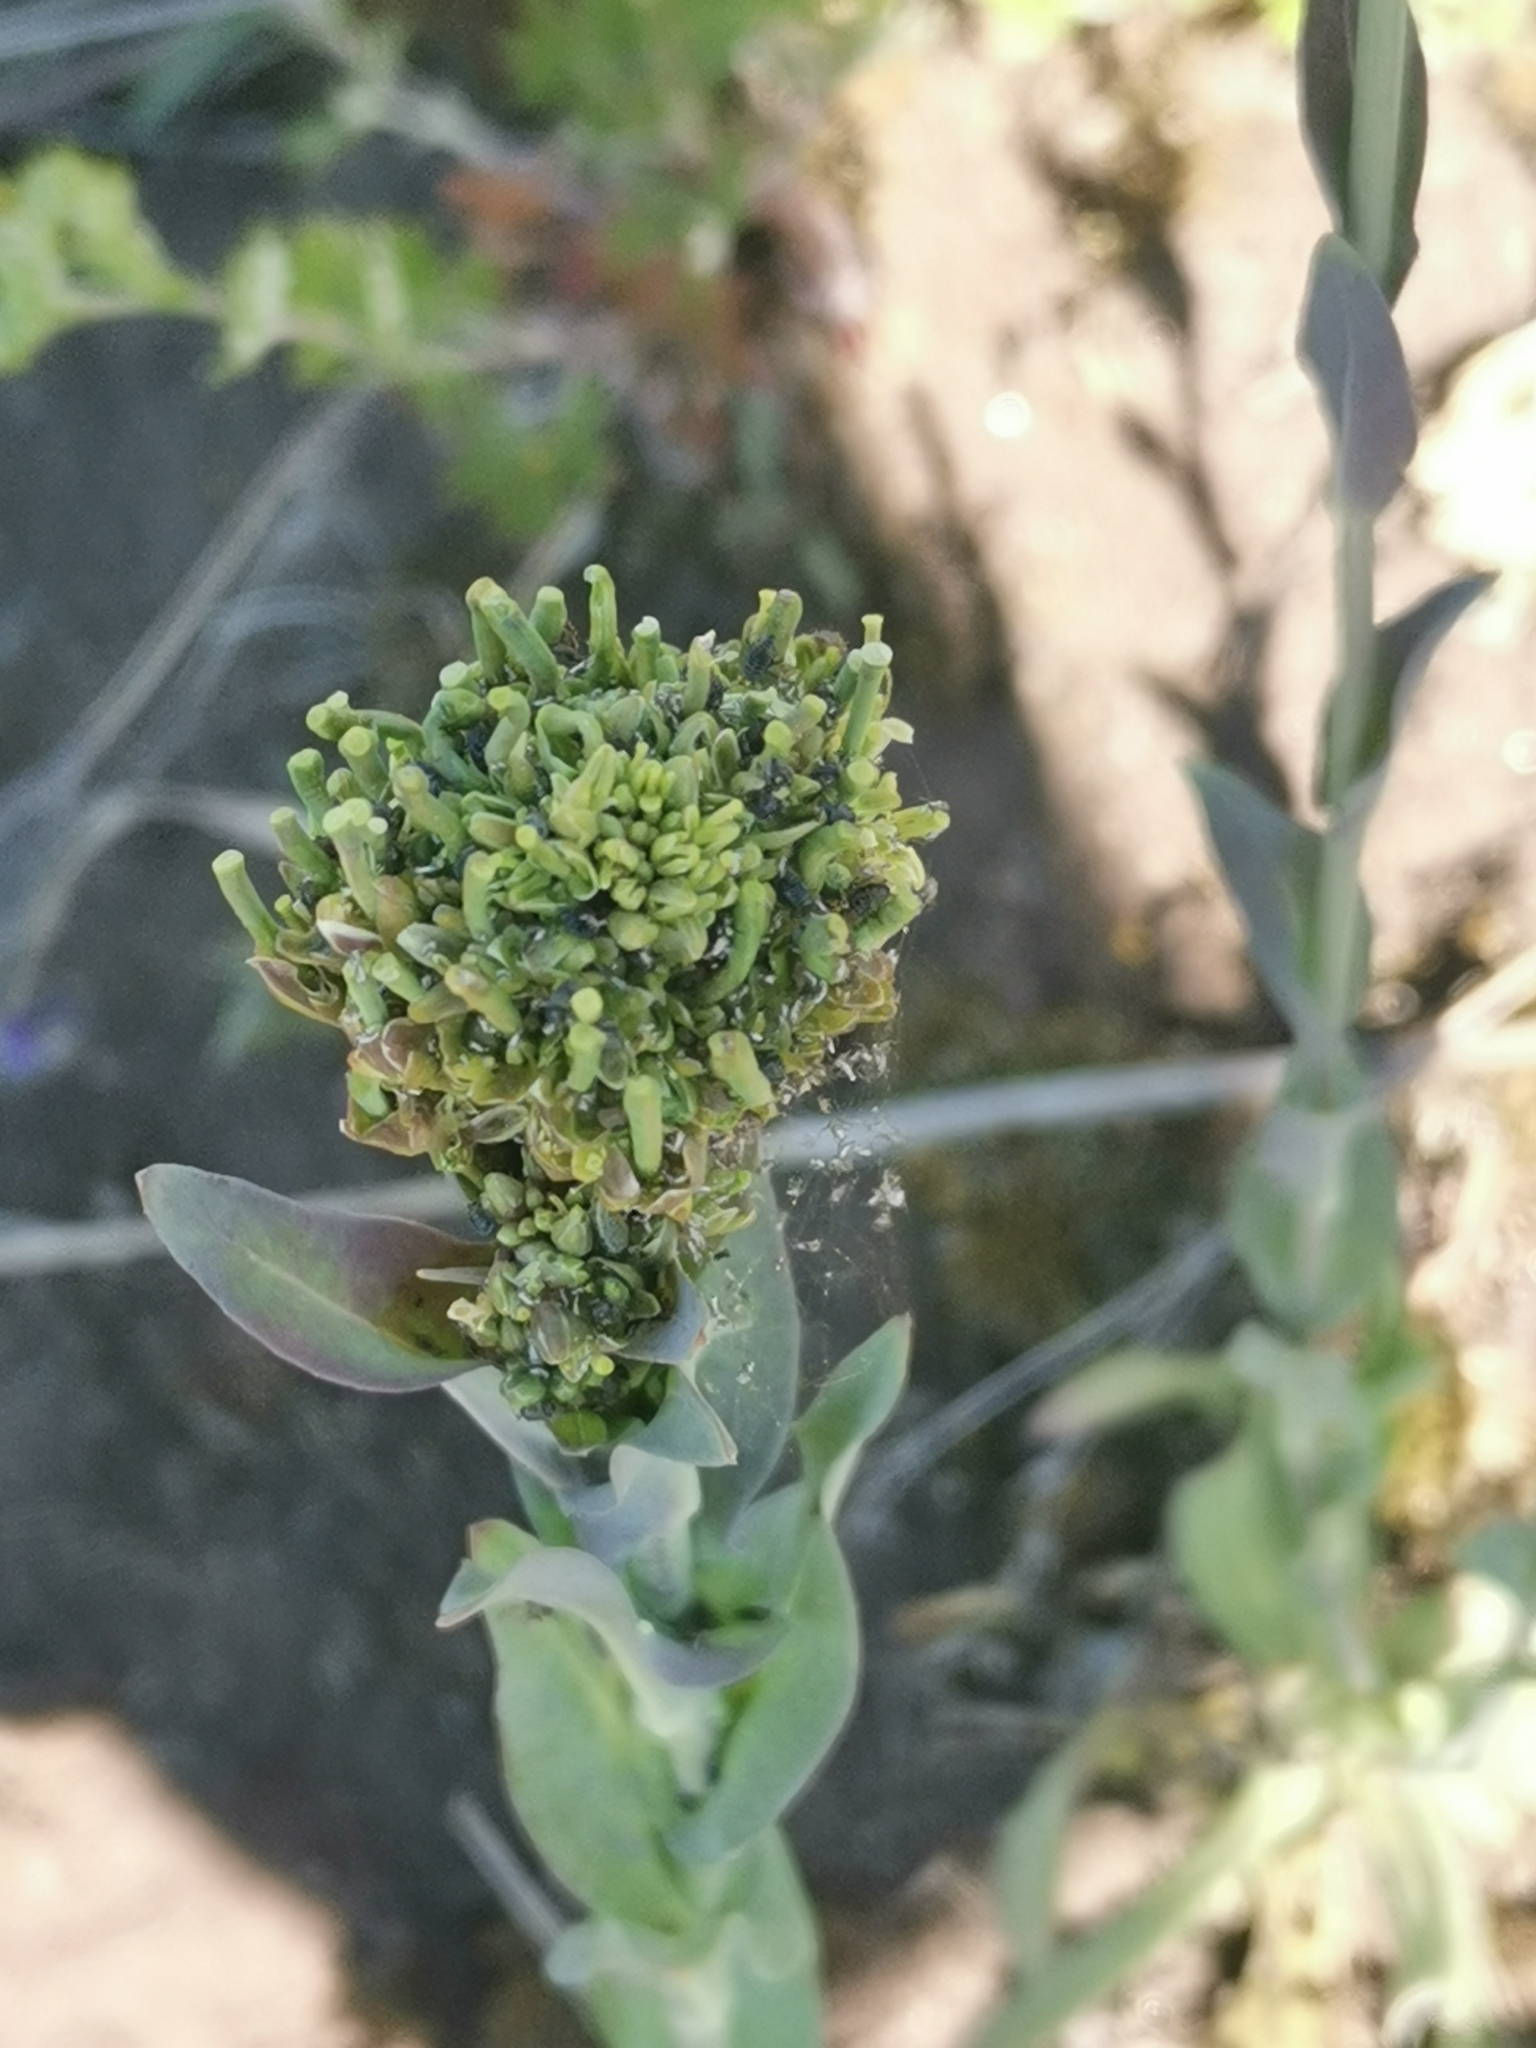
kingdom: Plantae
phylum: Tracheophyta
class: Magnoliopsida
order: Brassicales
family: Brassicaceae
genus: Turritis
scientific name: Turritis glabra
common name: Tower rockcress
